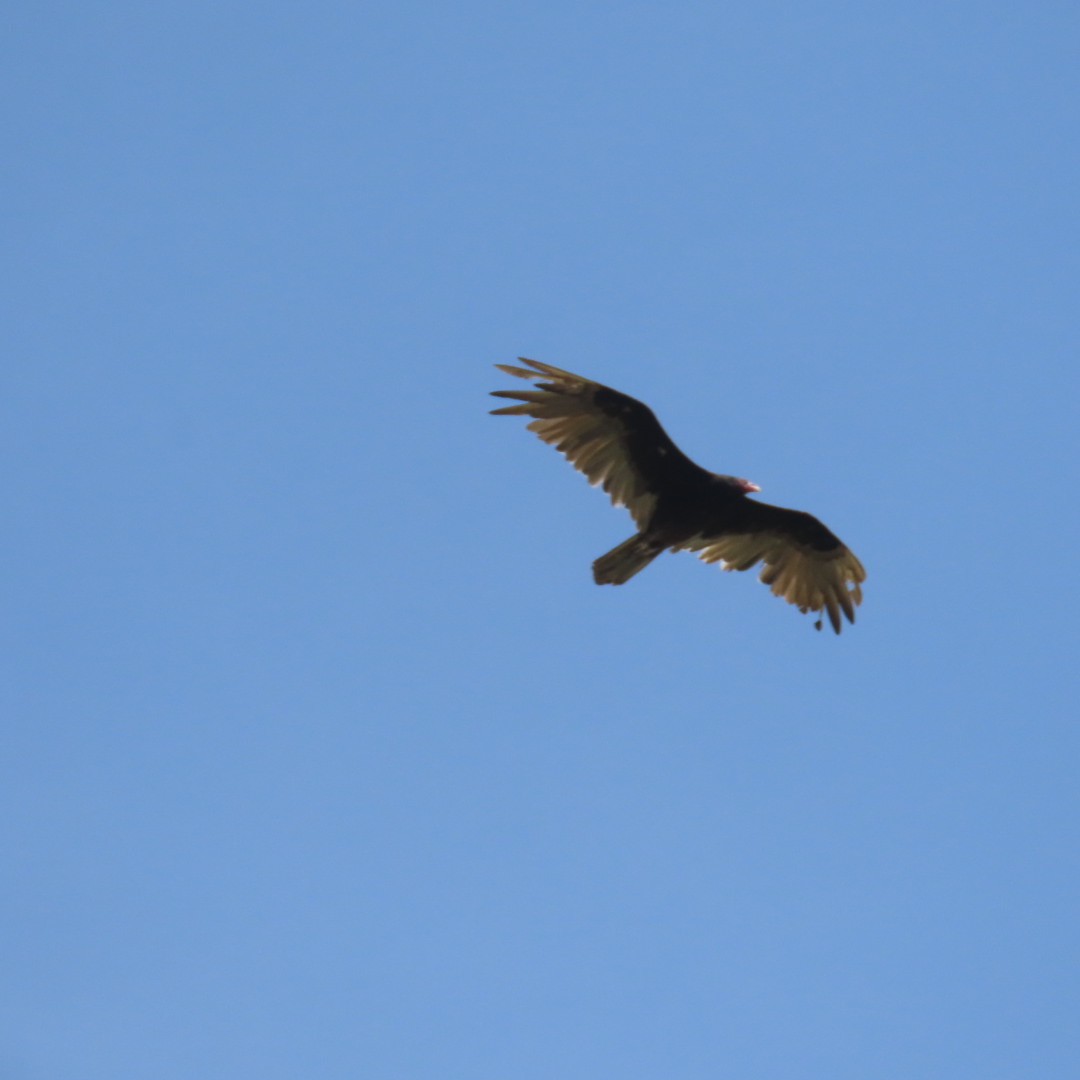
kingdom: Animalia
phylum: Chordata
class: Aves
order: Accipitriformes
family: Cathartidae
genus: Cathartes
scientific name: Cathartes aura
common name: Turkey vulture
